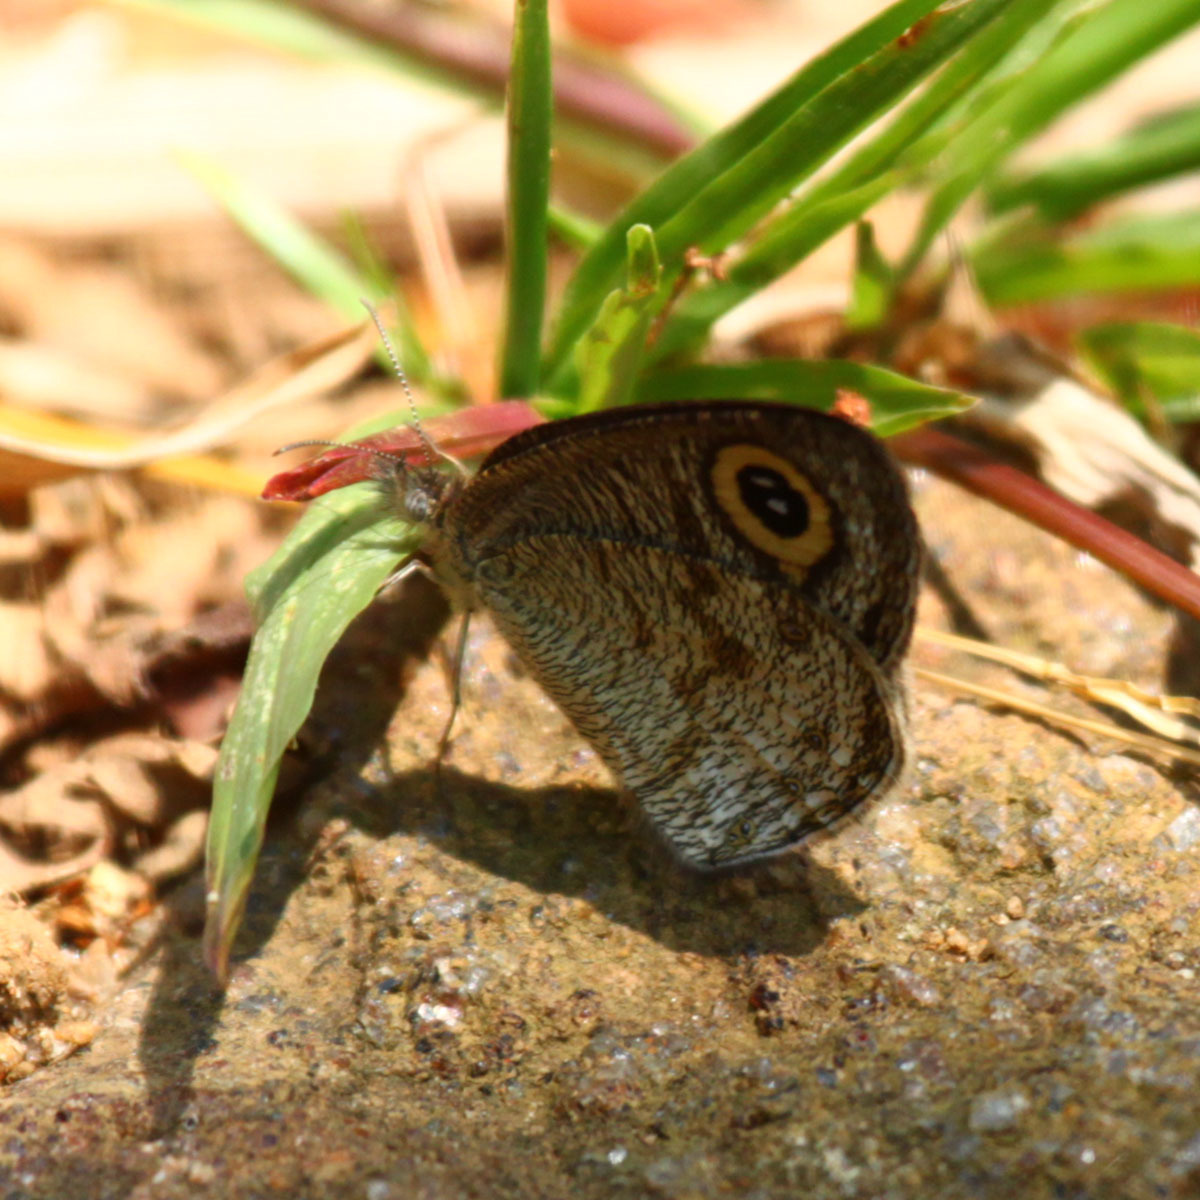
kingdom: Animalia
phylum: Arthropoda
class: Insecta
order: Lepidoptera
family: Nymphalidae
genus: Ypthima
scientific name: Ypthima huebneri
